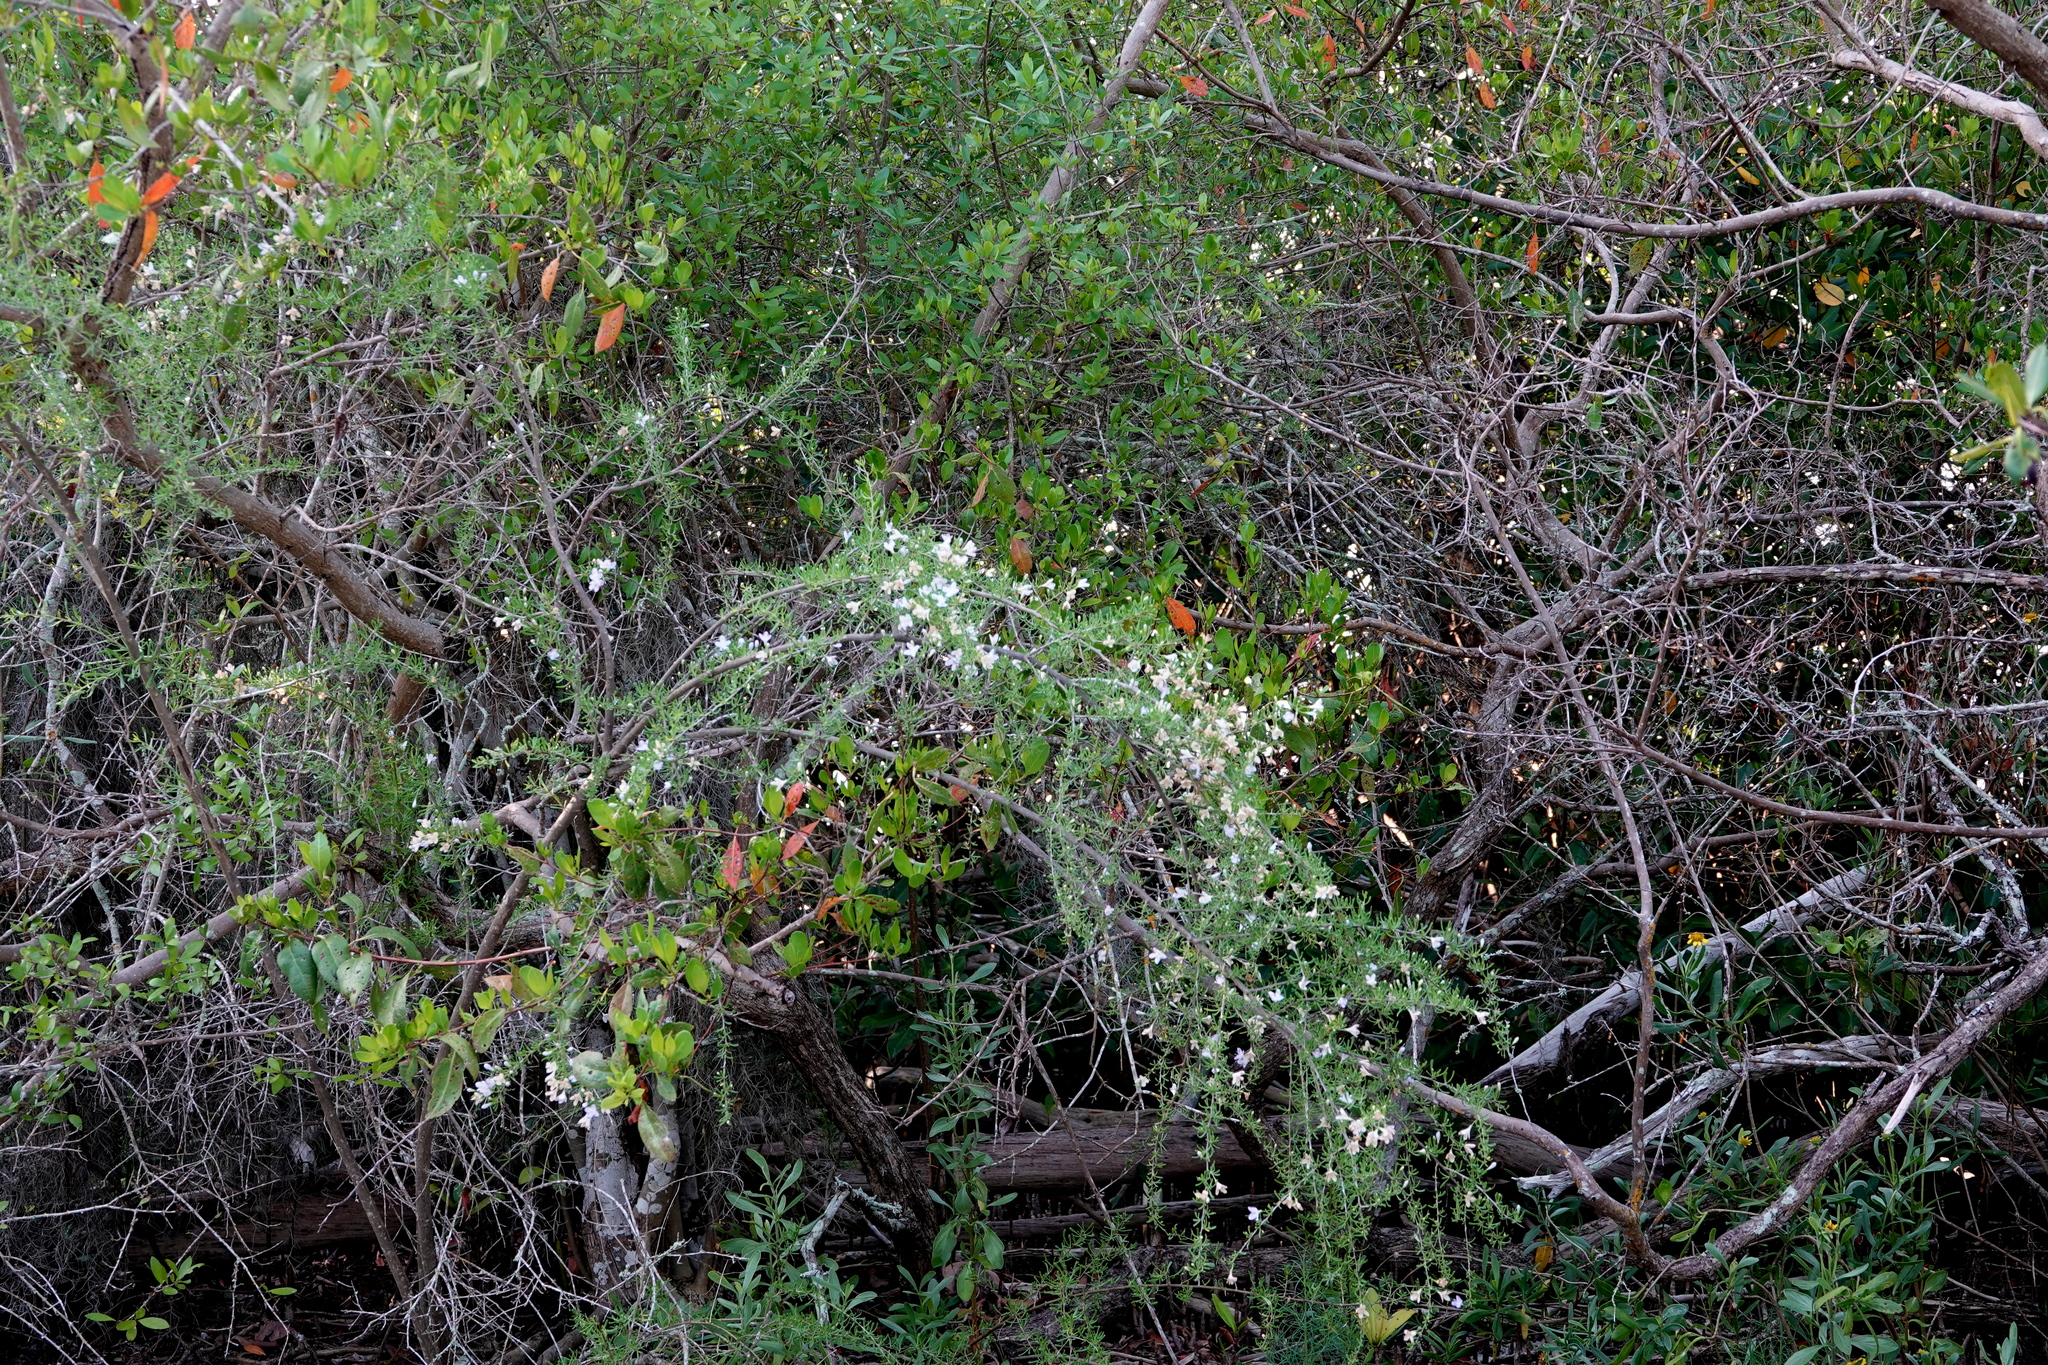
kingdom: Plantae
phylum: Tracheophyta
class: Magnoliopsida
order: Solanales
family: Solanaceae
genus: Lycium
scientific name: Lycium carolinianum
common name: Christmasberry
